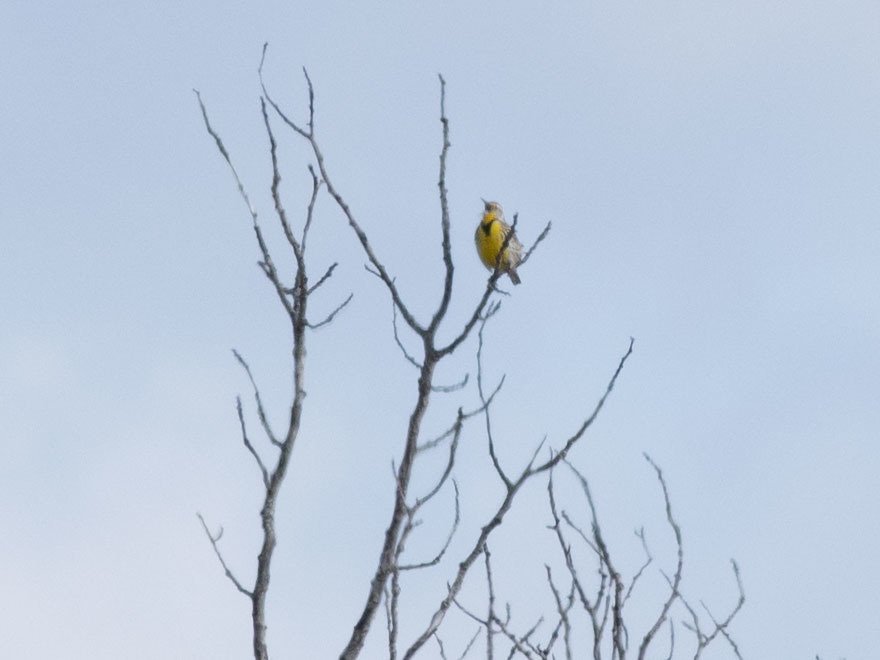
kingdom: Animalia
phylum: Chordata
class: Aves
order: Passeriformes
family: Icteridae
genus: Sturnella
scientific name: Sturnella neglecta
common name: Western meadowlark
